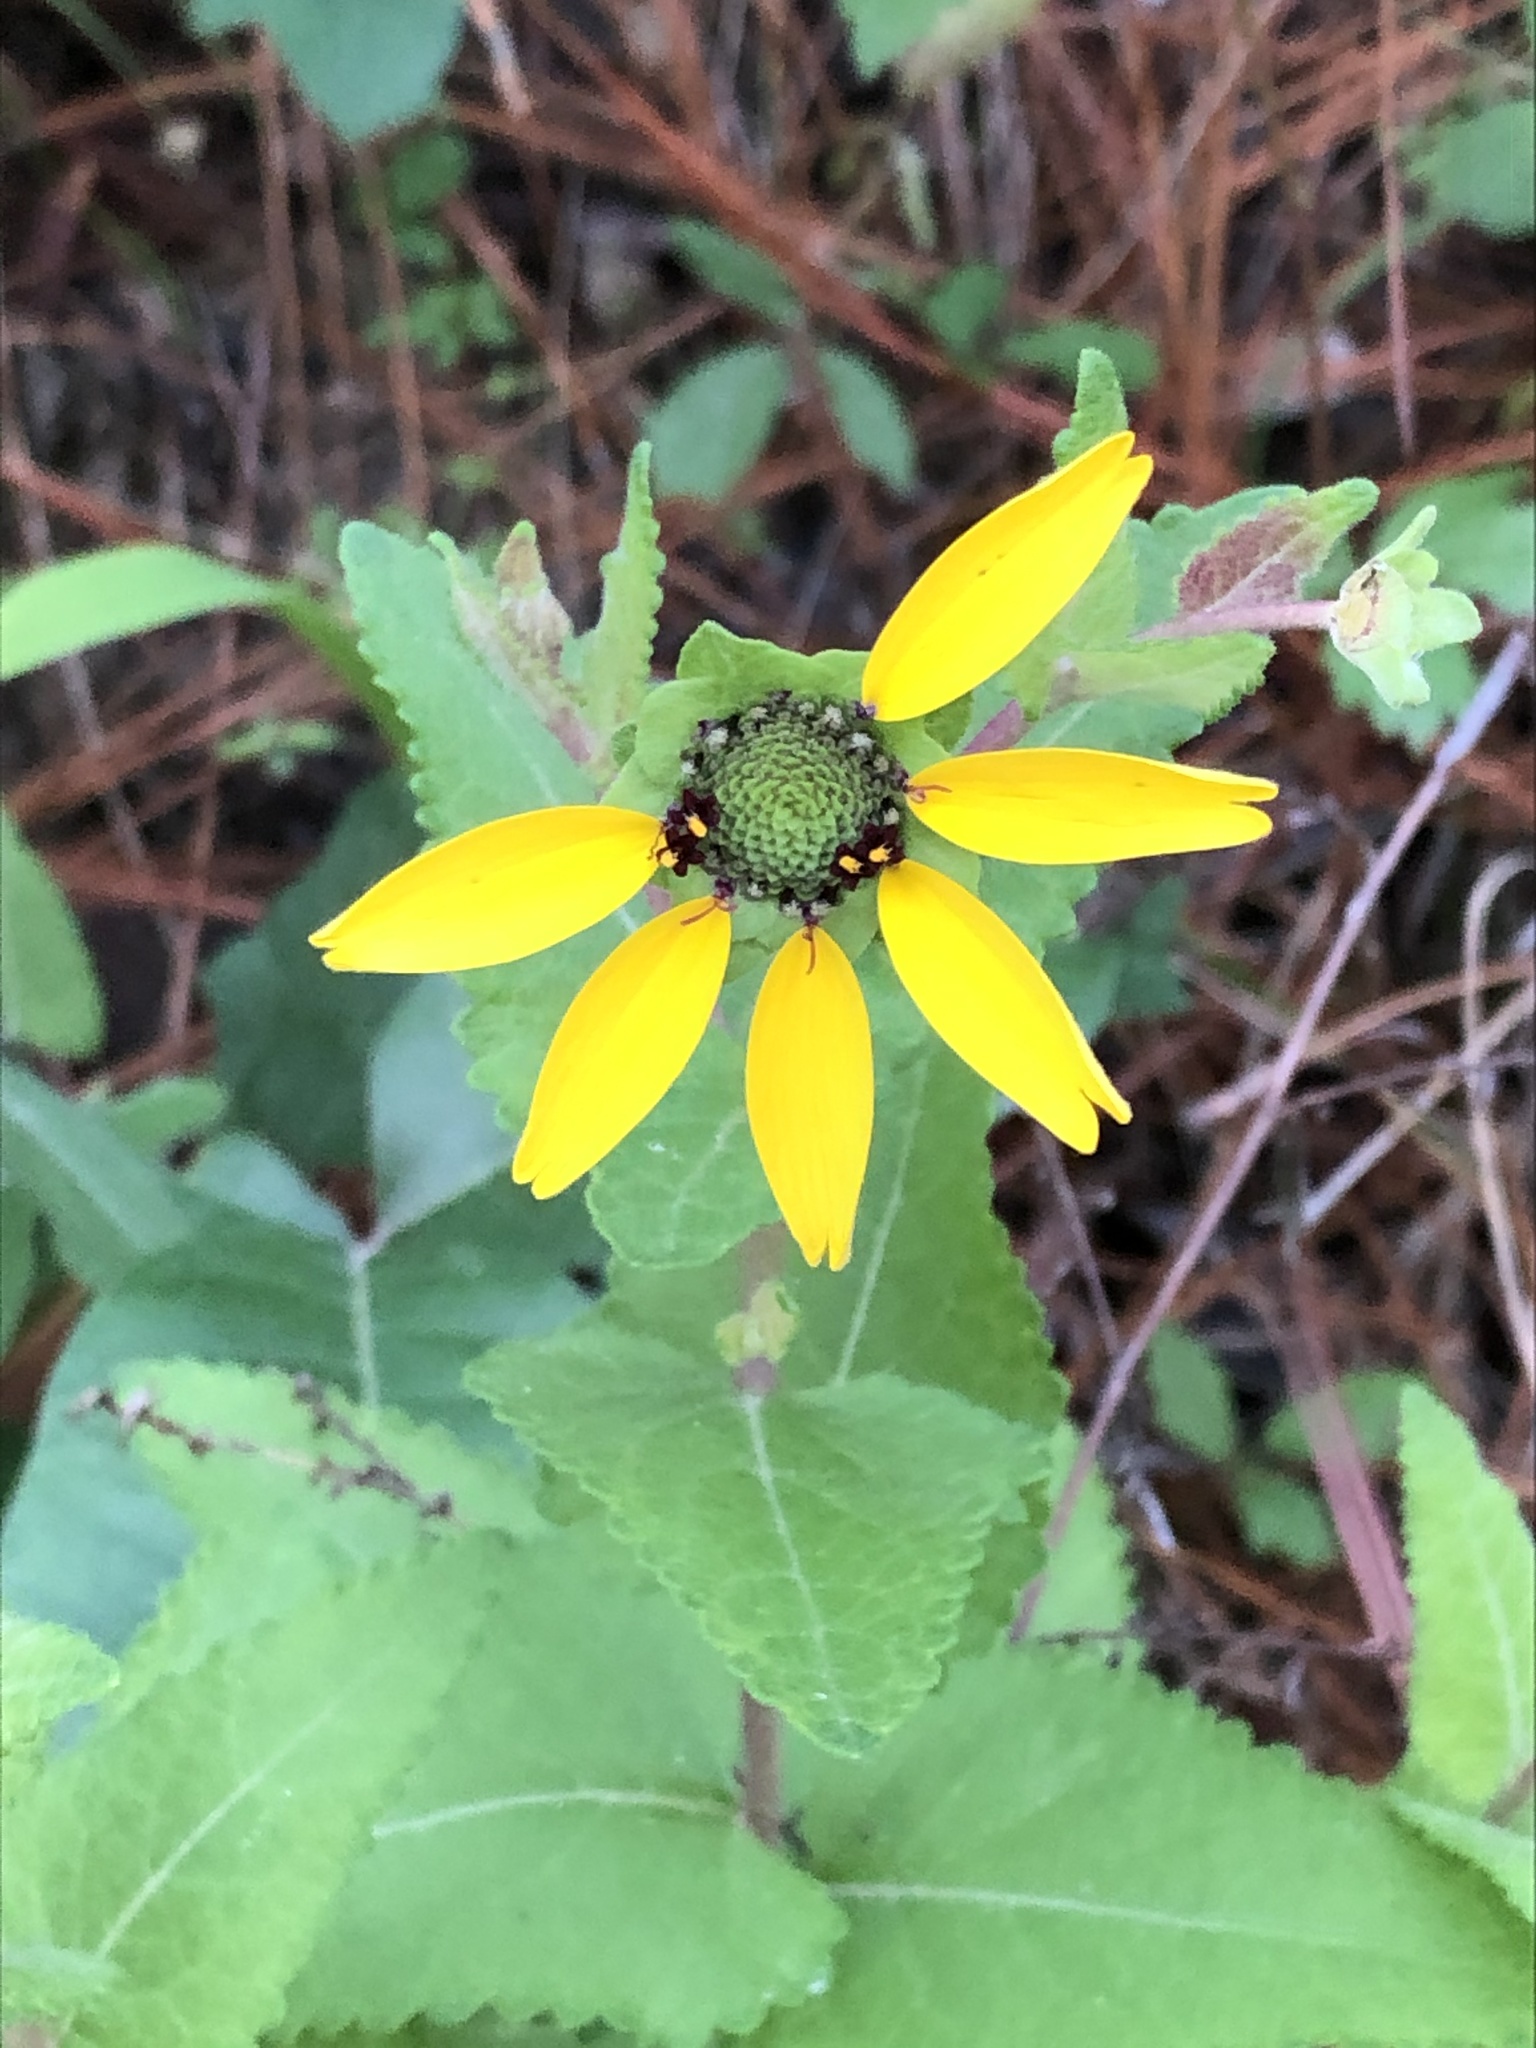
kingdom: Plantae
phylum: Tracheophyta
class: Magnoliopsida
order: Asterales
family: Asteraceae
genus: Berlandiera
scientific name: Berlandiera pumila
